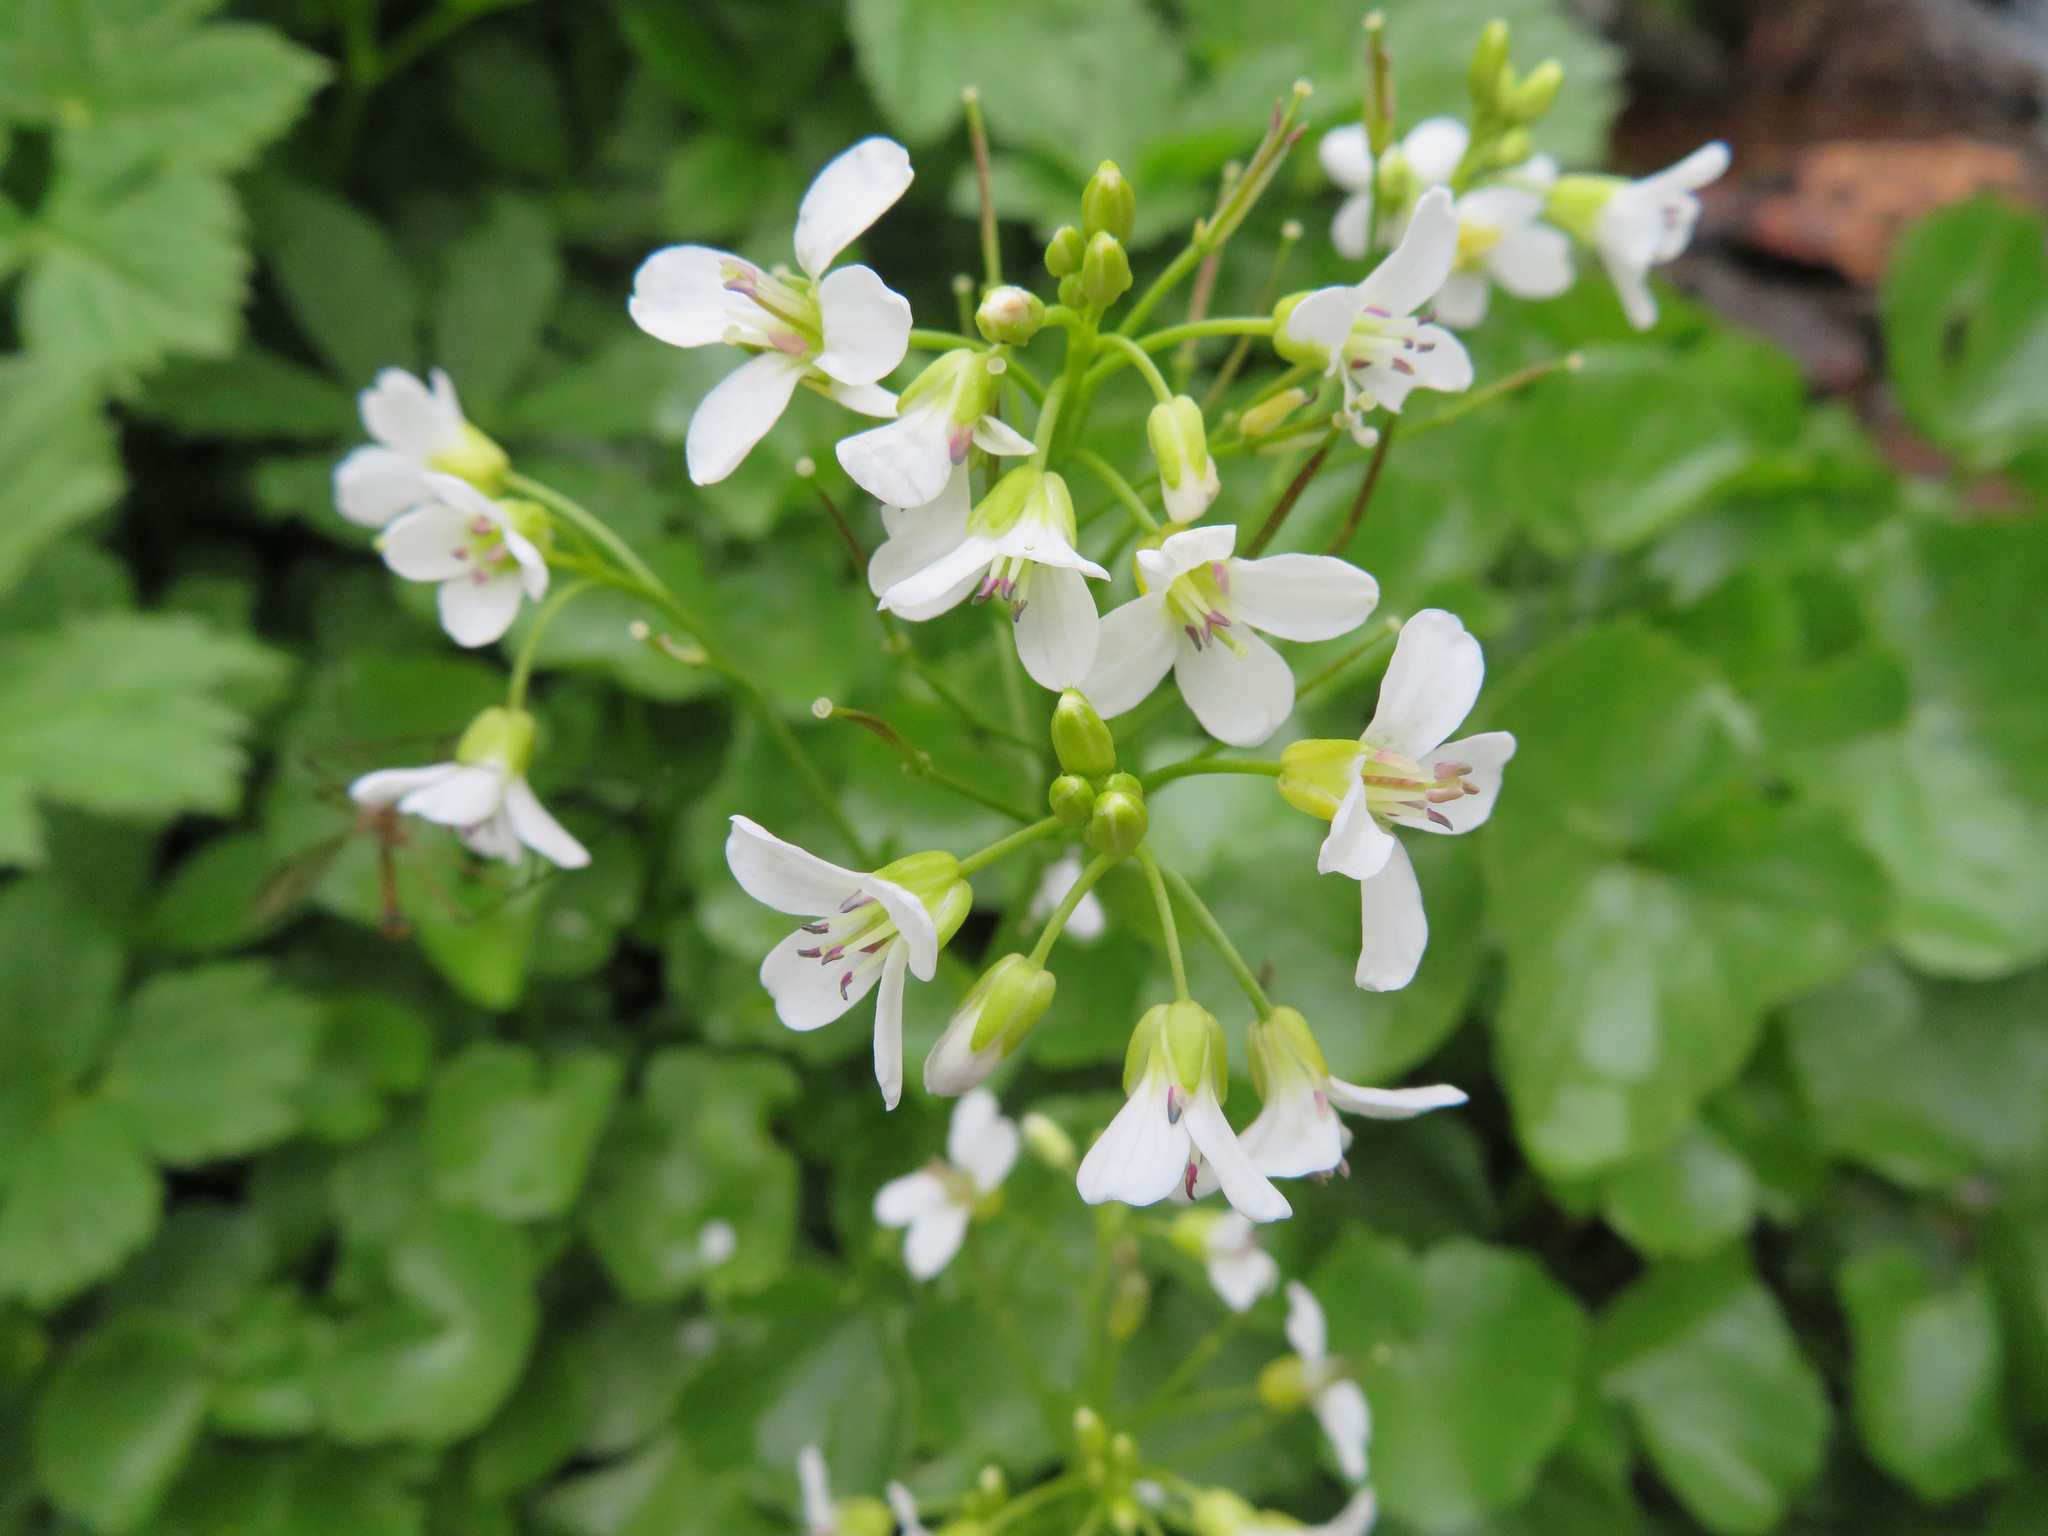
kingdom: Plantae
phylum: Tracheophyta
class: Magnoliopsida
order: Brassicales
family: Brassicaceae
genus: Cardamine
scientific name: Cardamine asarifolia
